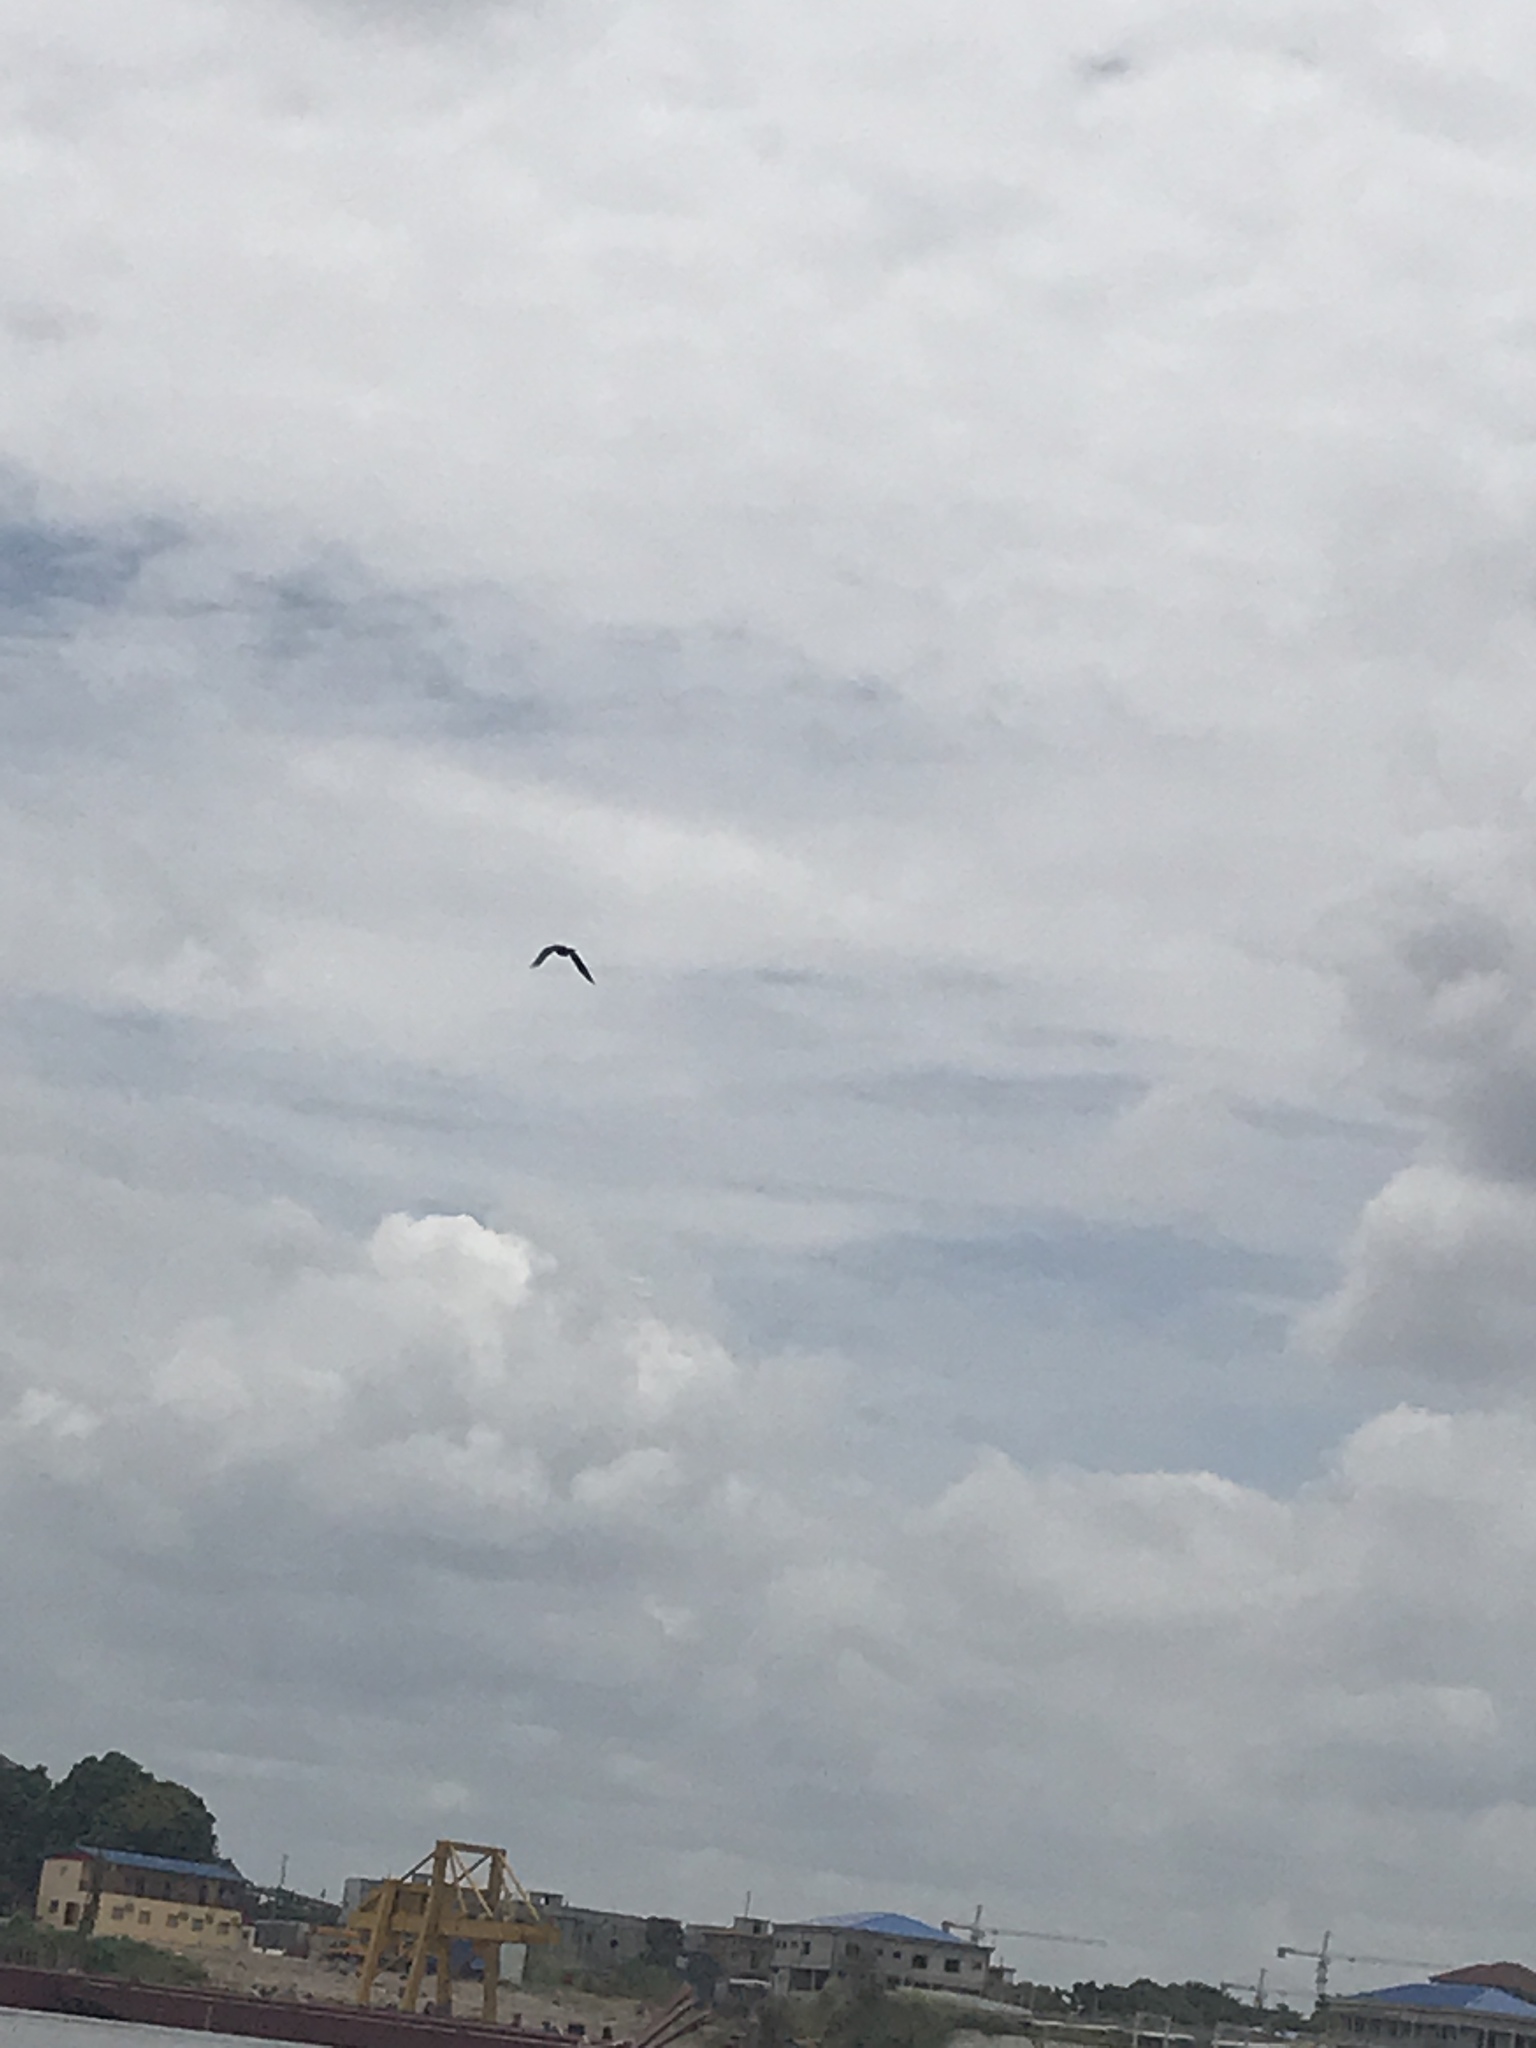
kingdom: Animalia
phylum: Chordata
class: Aves
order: Passeriformes
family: Corvidae
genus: Corvus
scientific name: Corvus albus
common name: Pied crow
